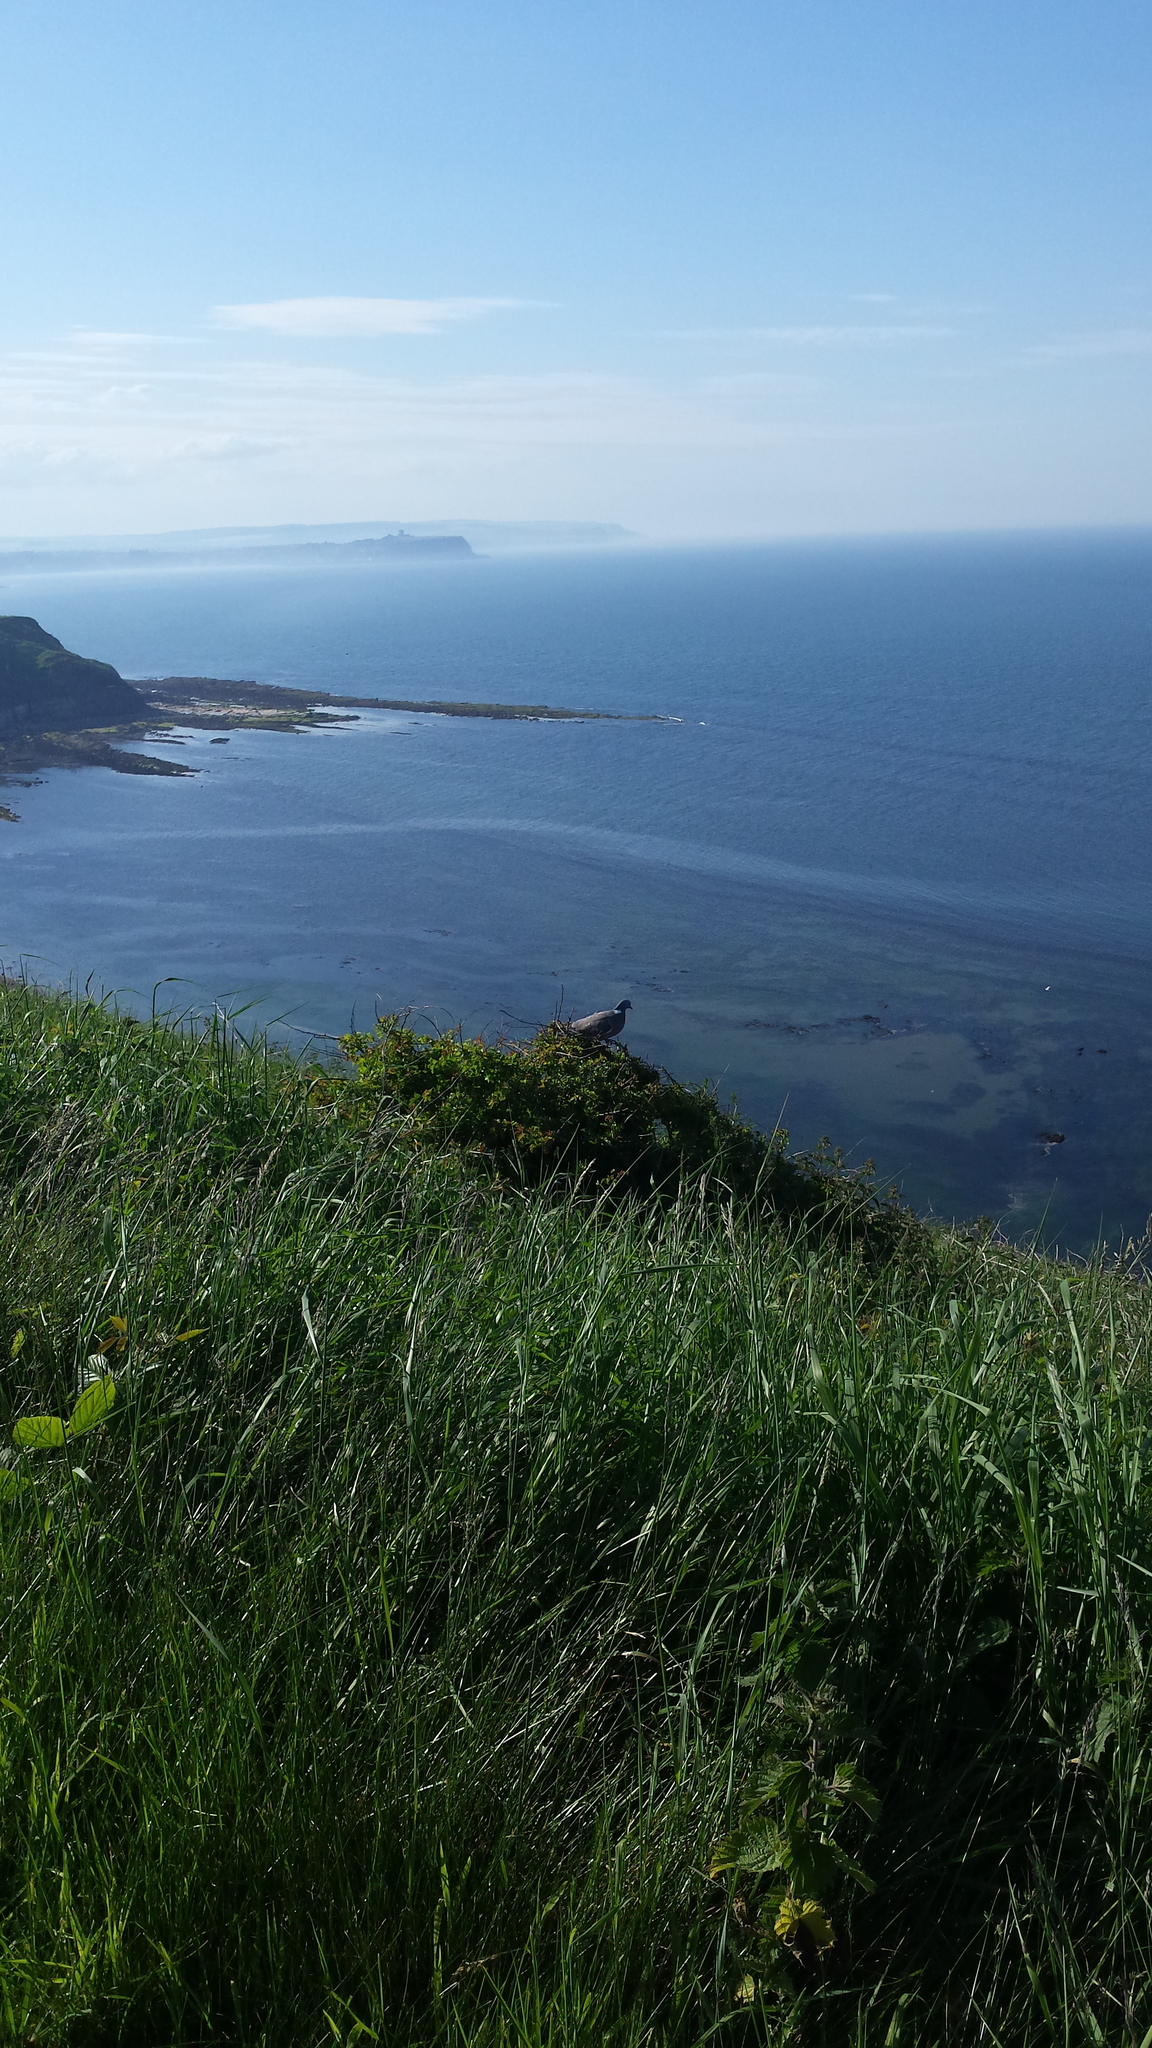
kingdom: Animalia
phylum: Chordata
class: Aves
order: Columbiformes
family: Columbidae
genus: Columba
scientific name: Columba palumbus
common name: Common wood pigeon
